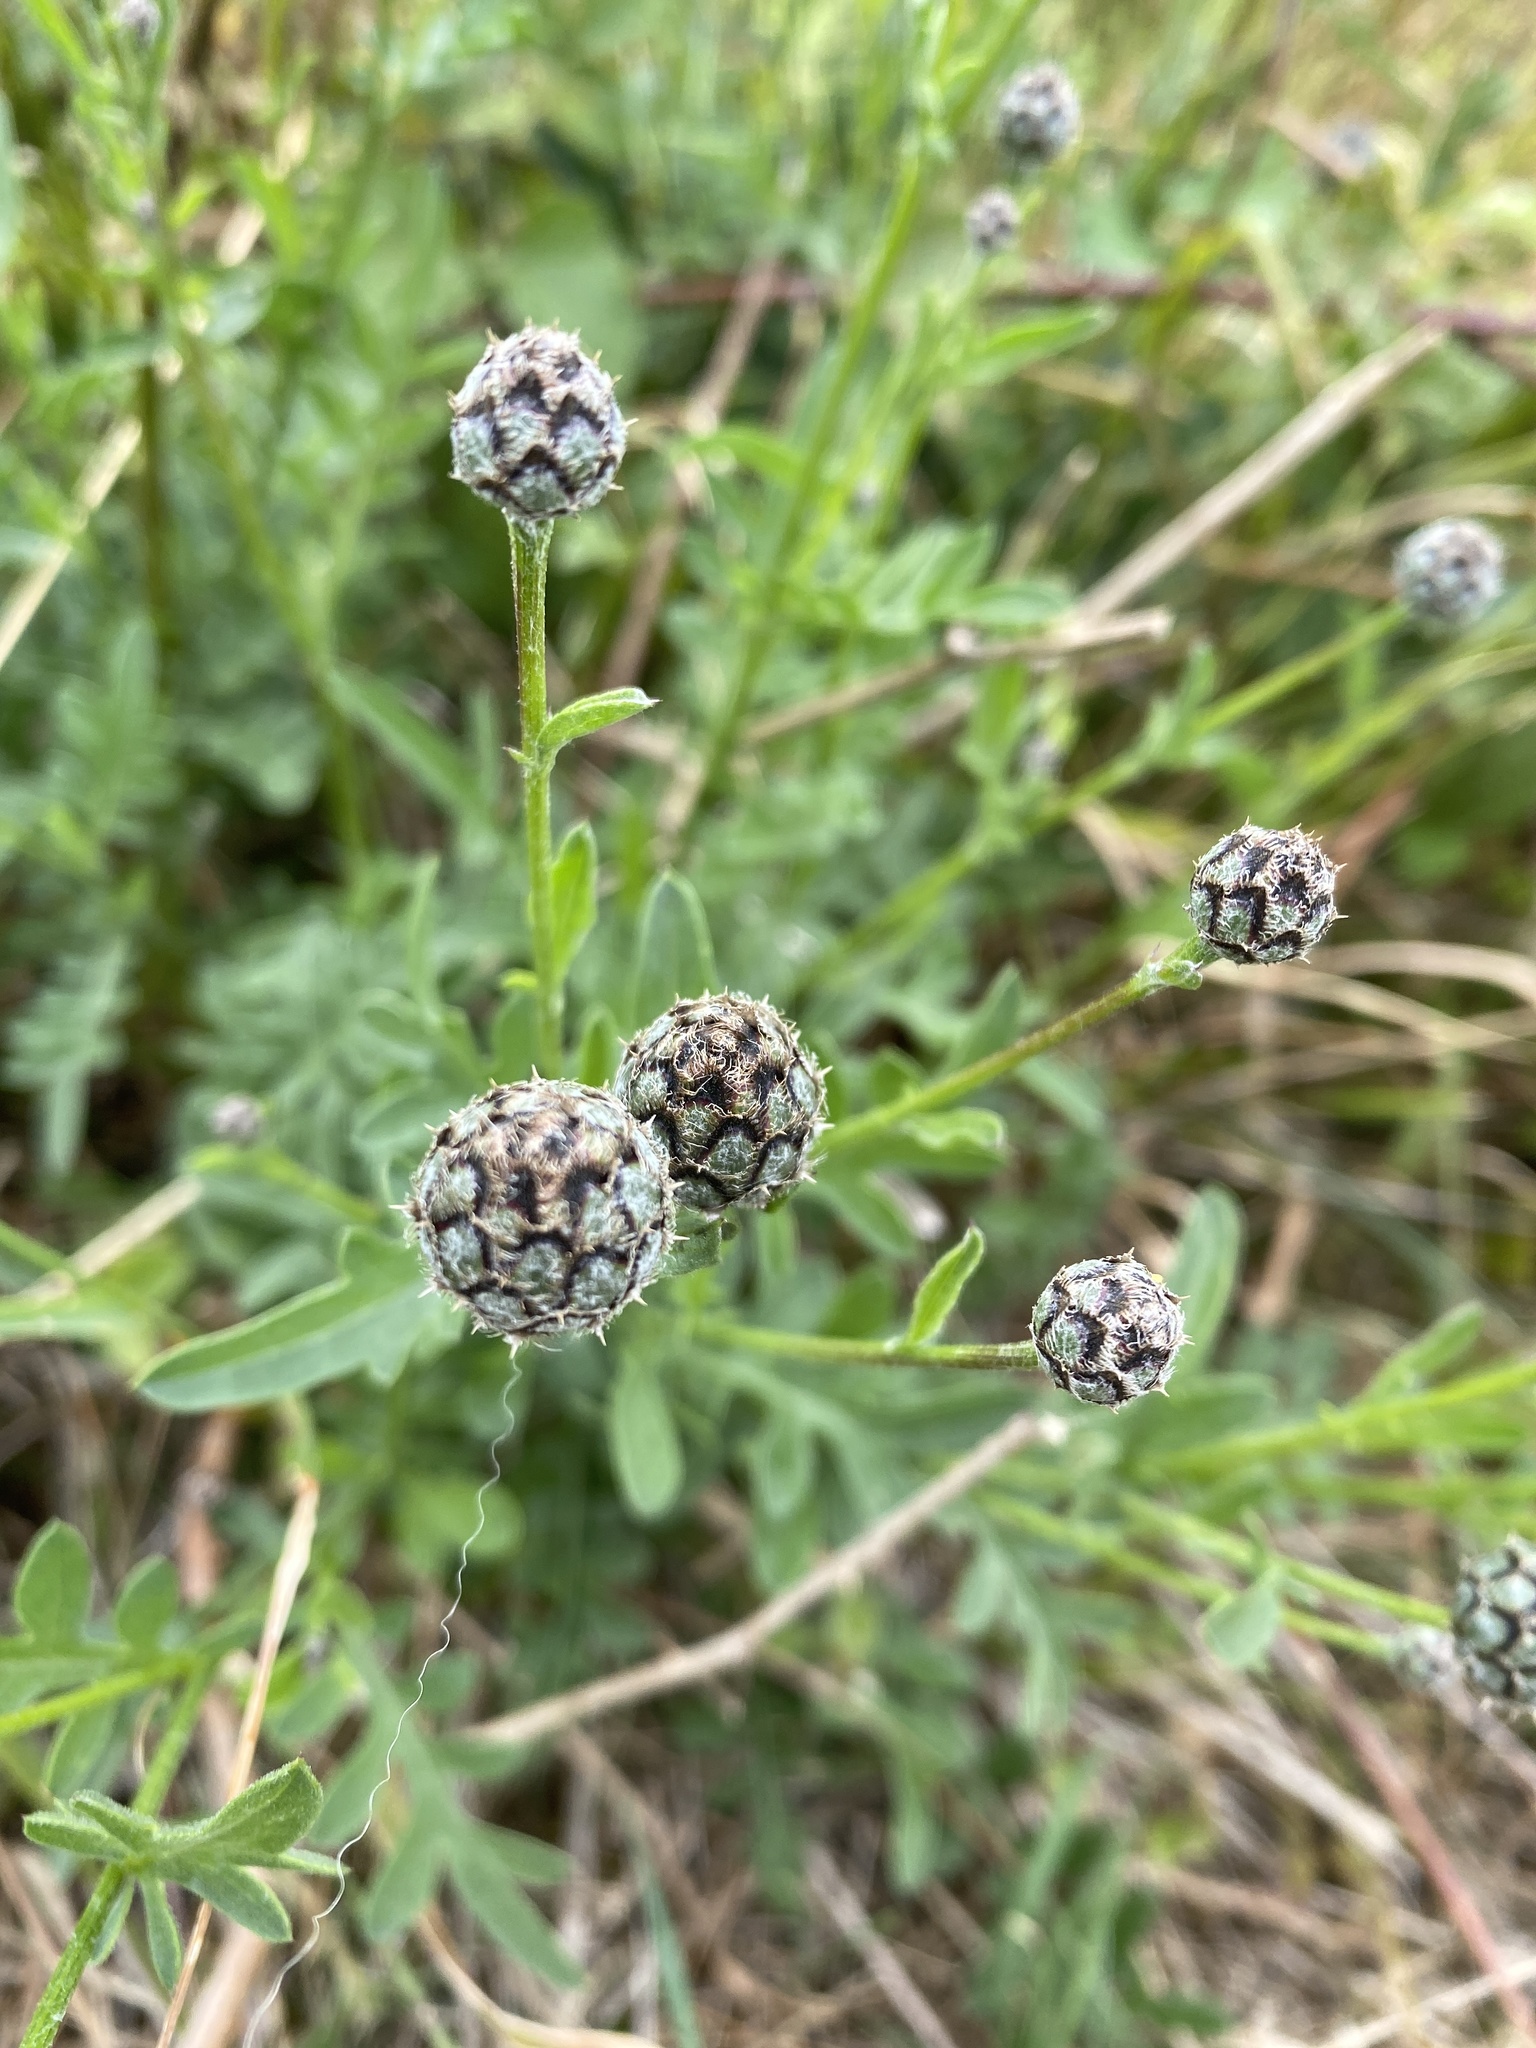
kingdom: Plantae
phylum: Tracheophyta
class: Magnoliopsida
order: Asterales
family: Asteraceae
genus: Centaurea
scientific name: Centaurea scabiosa
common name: Greater knapweed
